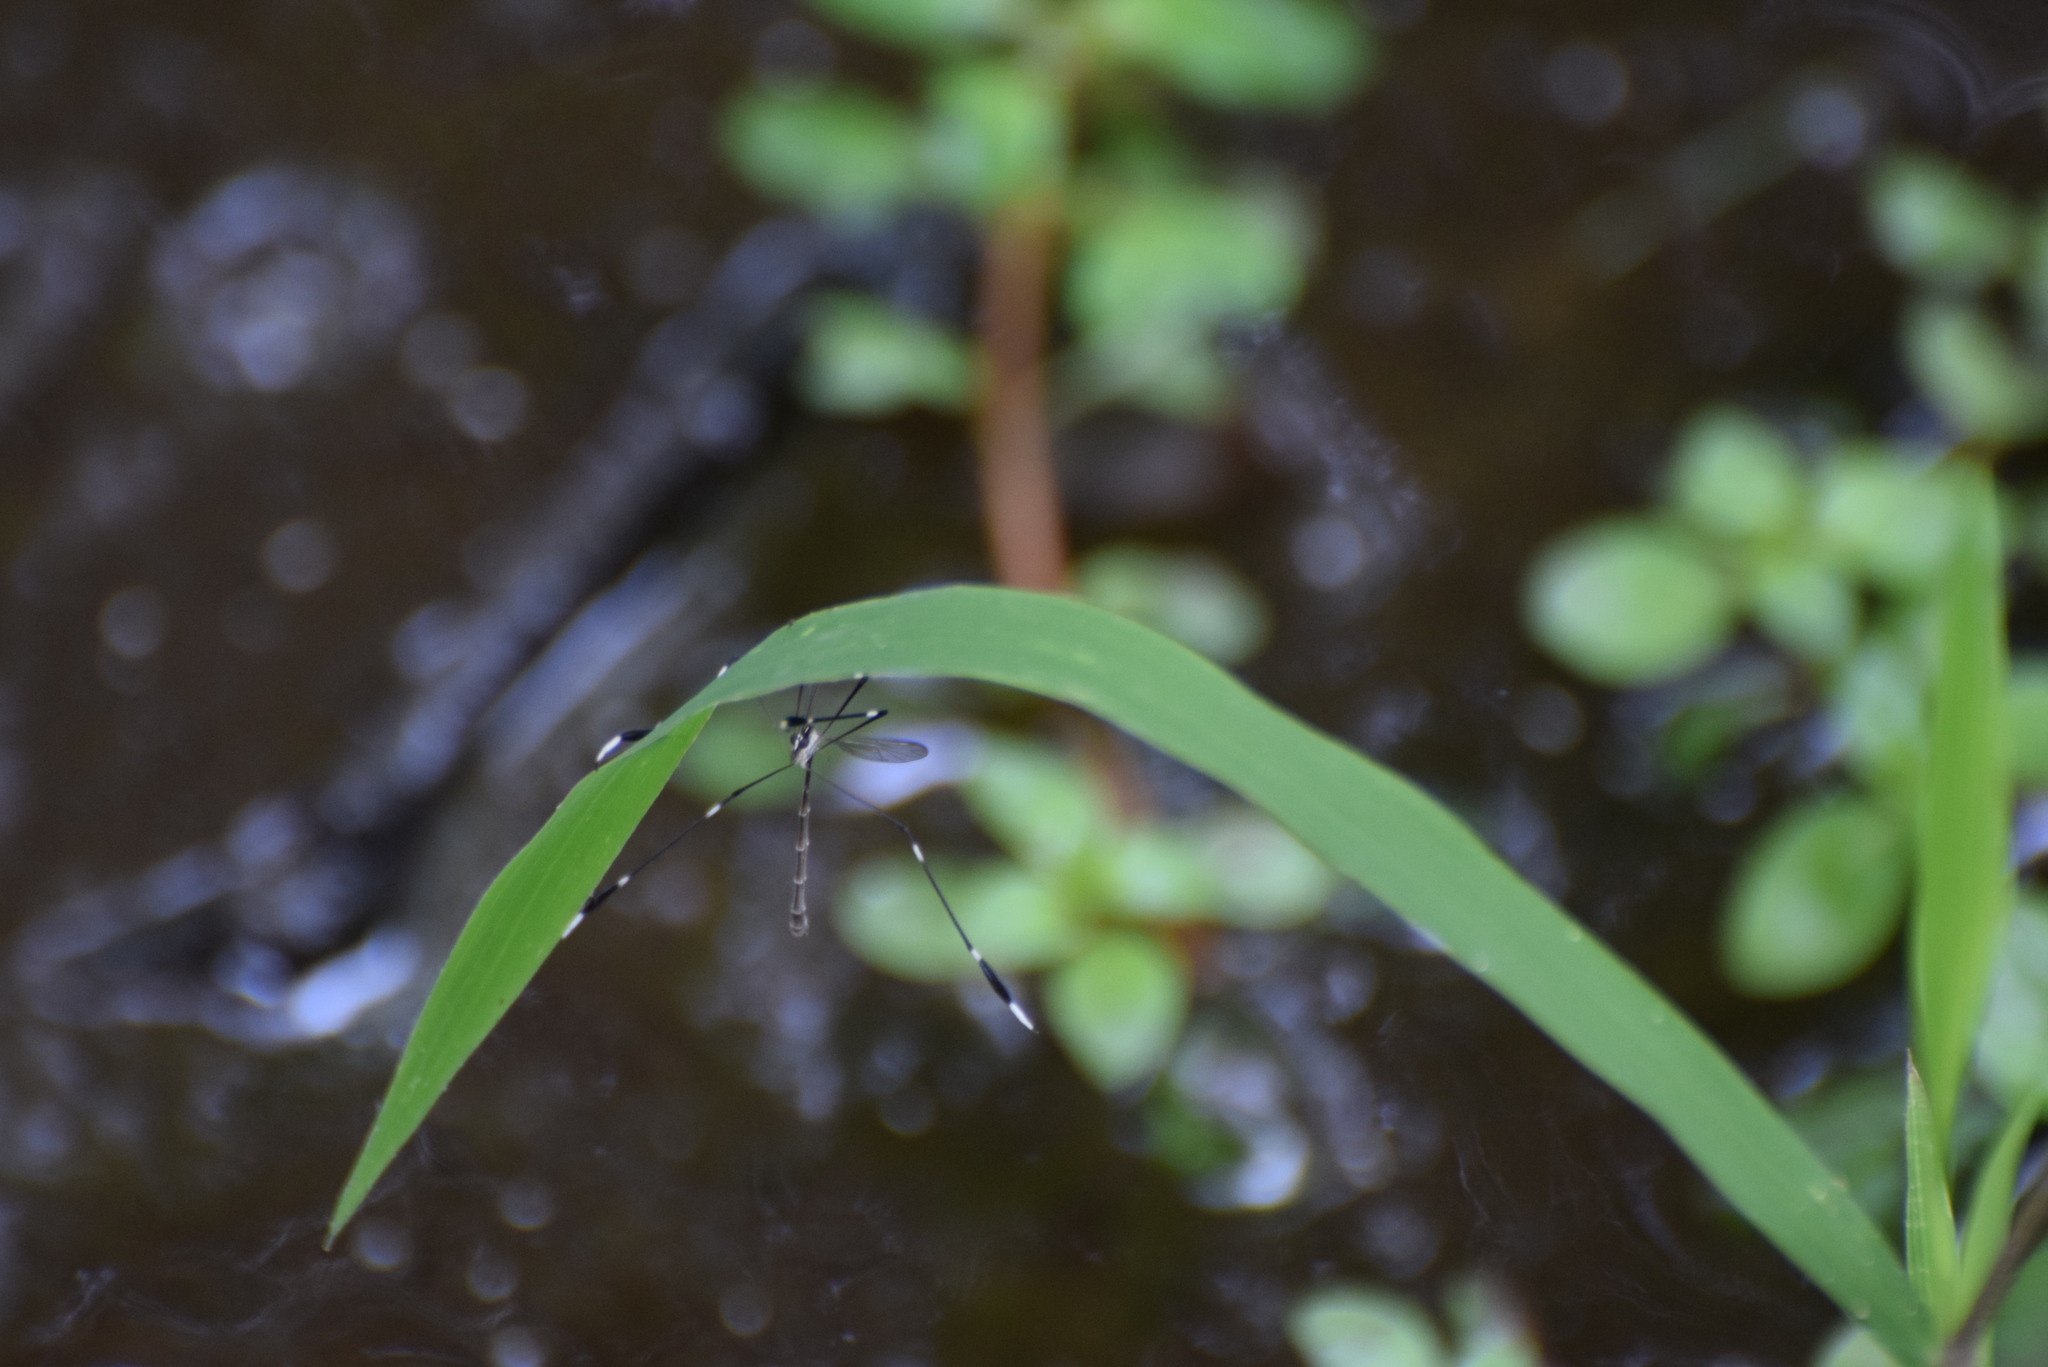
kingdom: Animalia
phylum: Arthropoda
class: Insecta
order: Diptera
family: Ptychopteridae
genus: Bittacomorpha
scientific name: Bittacomorpha clavipes
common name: Eastern phantom crane fly
